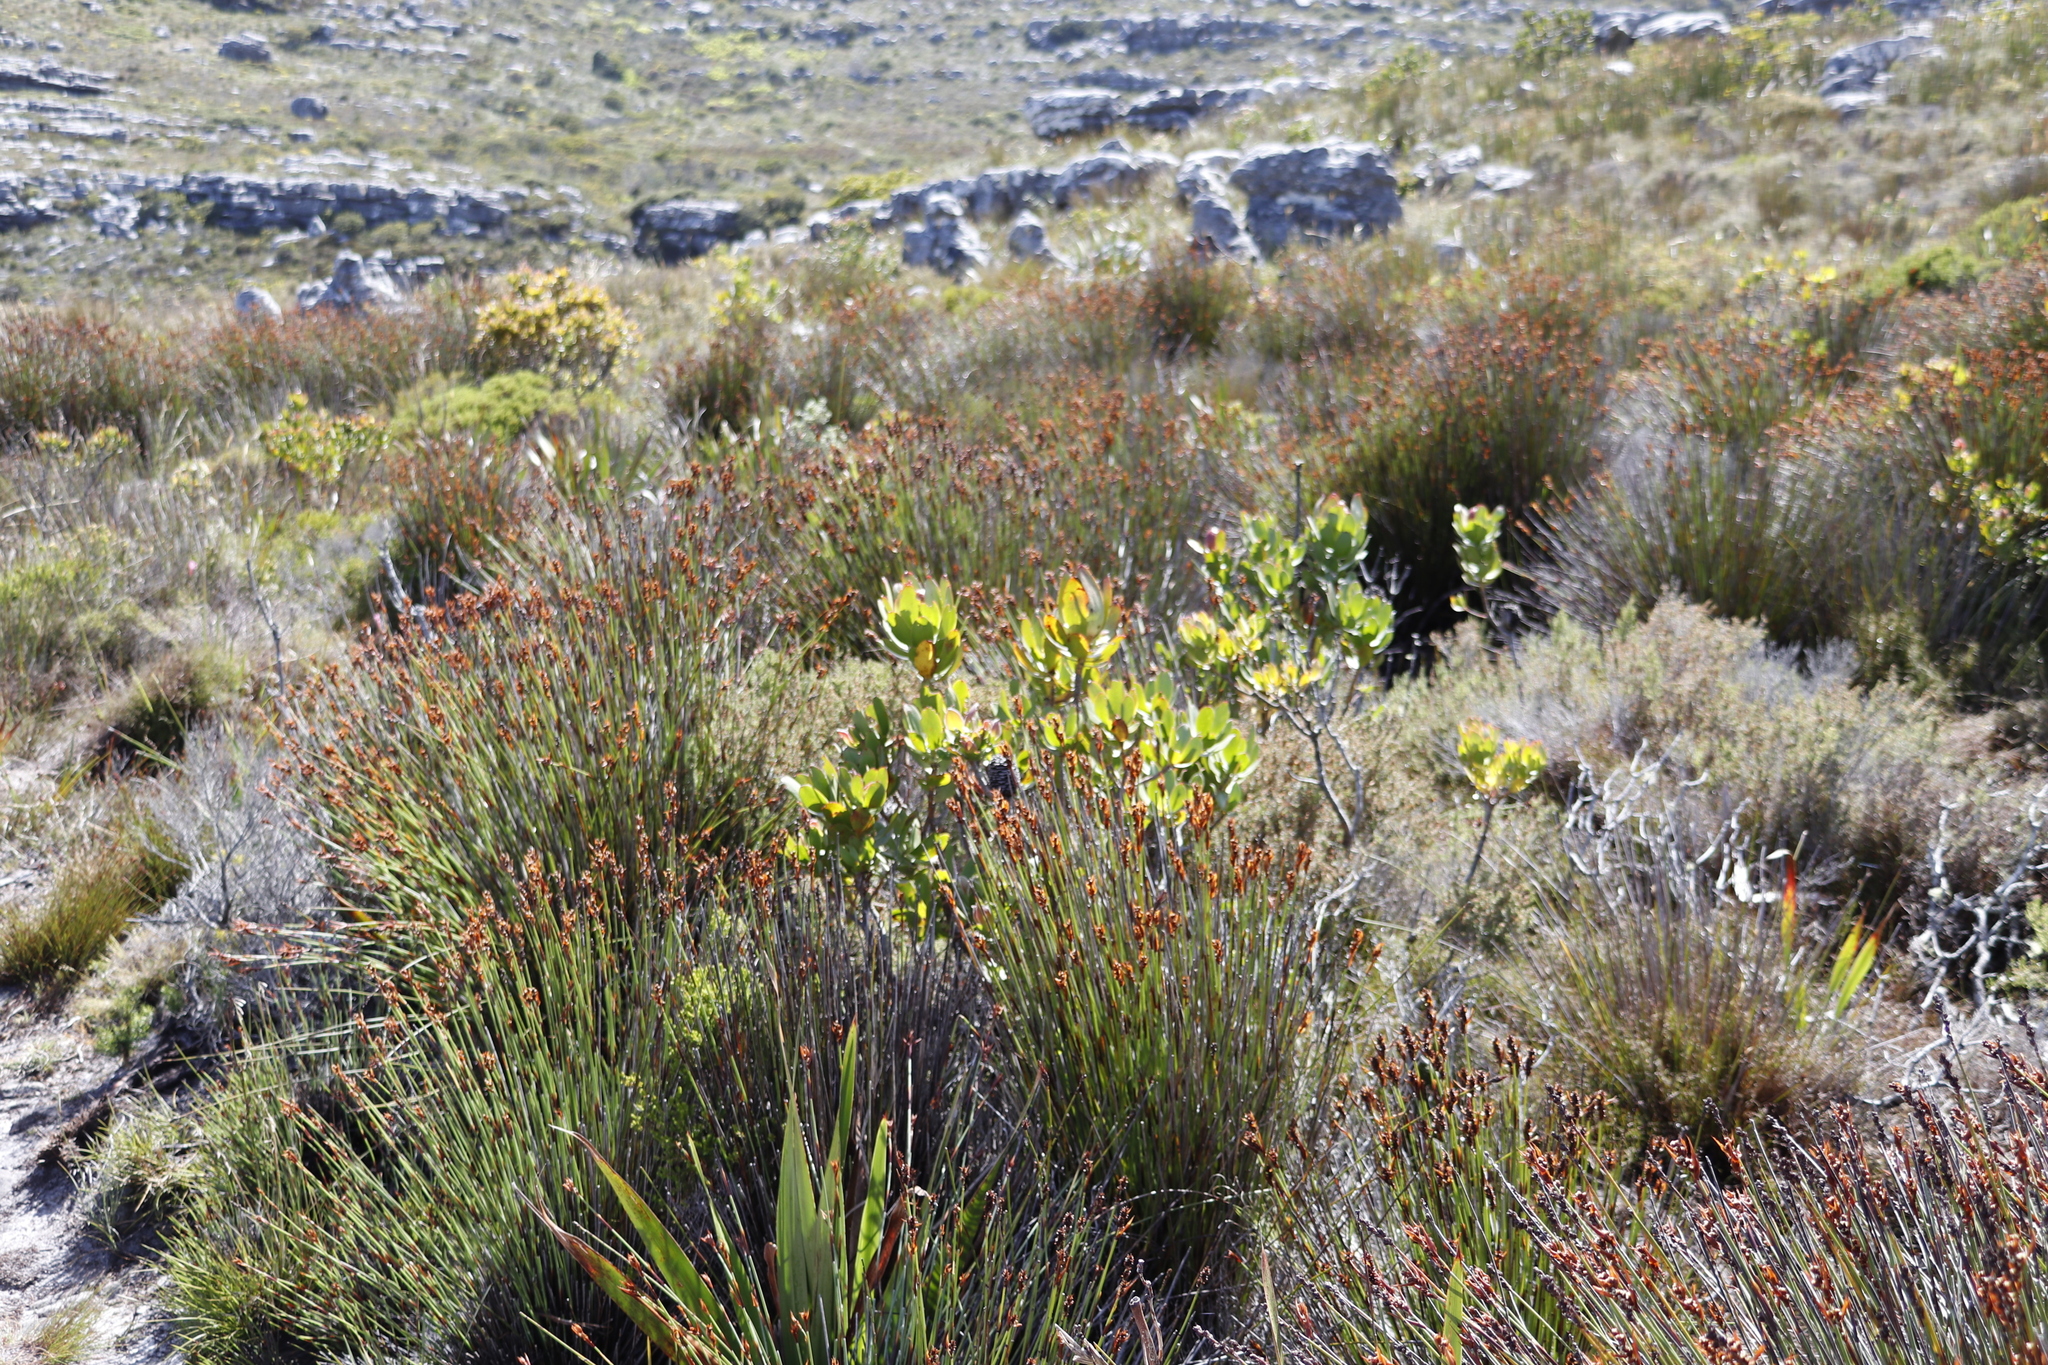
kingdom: Plantae
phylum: Tracheophyta
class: Liliopsida
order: Poales
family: Restionaceae
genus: Elegia
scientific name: Elegia ebracteata
